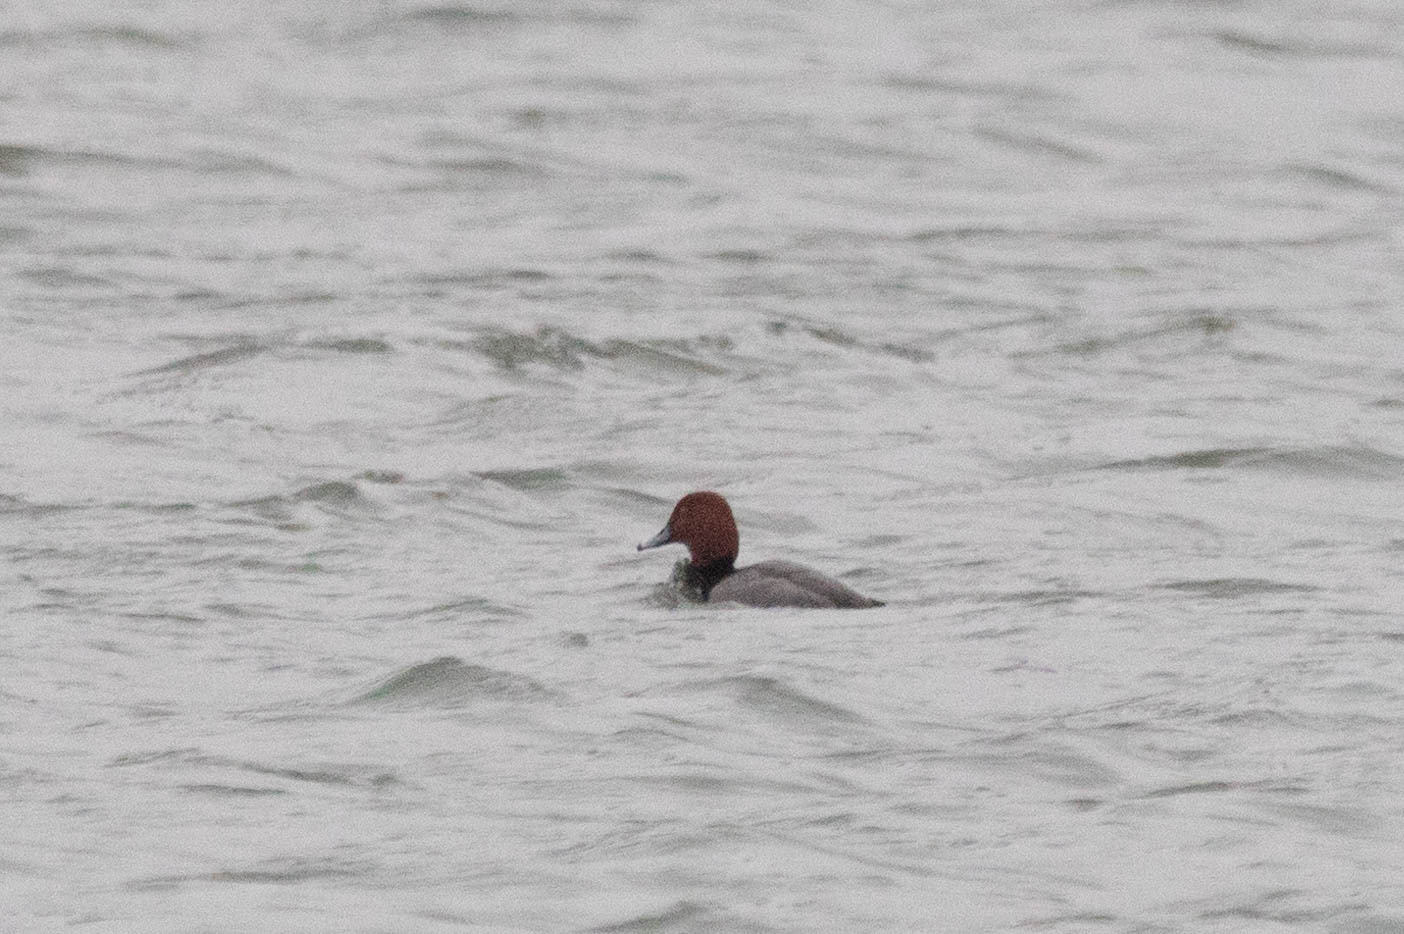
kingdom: Animalia
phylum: Chordata
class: Aves
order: Anseriformes
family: Anatidae
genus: Aythya
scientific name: Aythya americana
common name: Redhead
